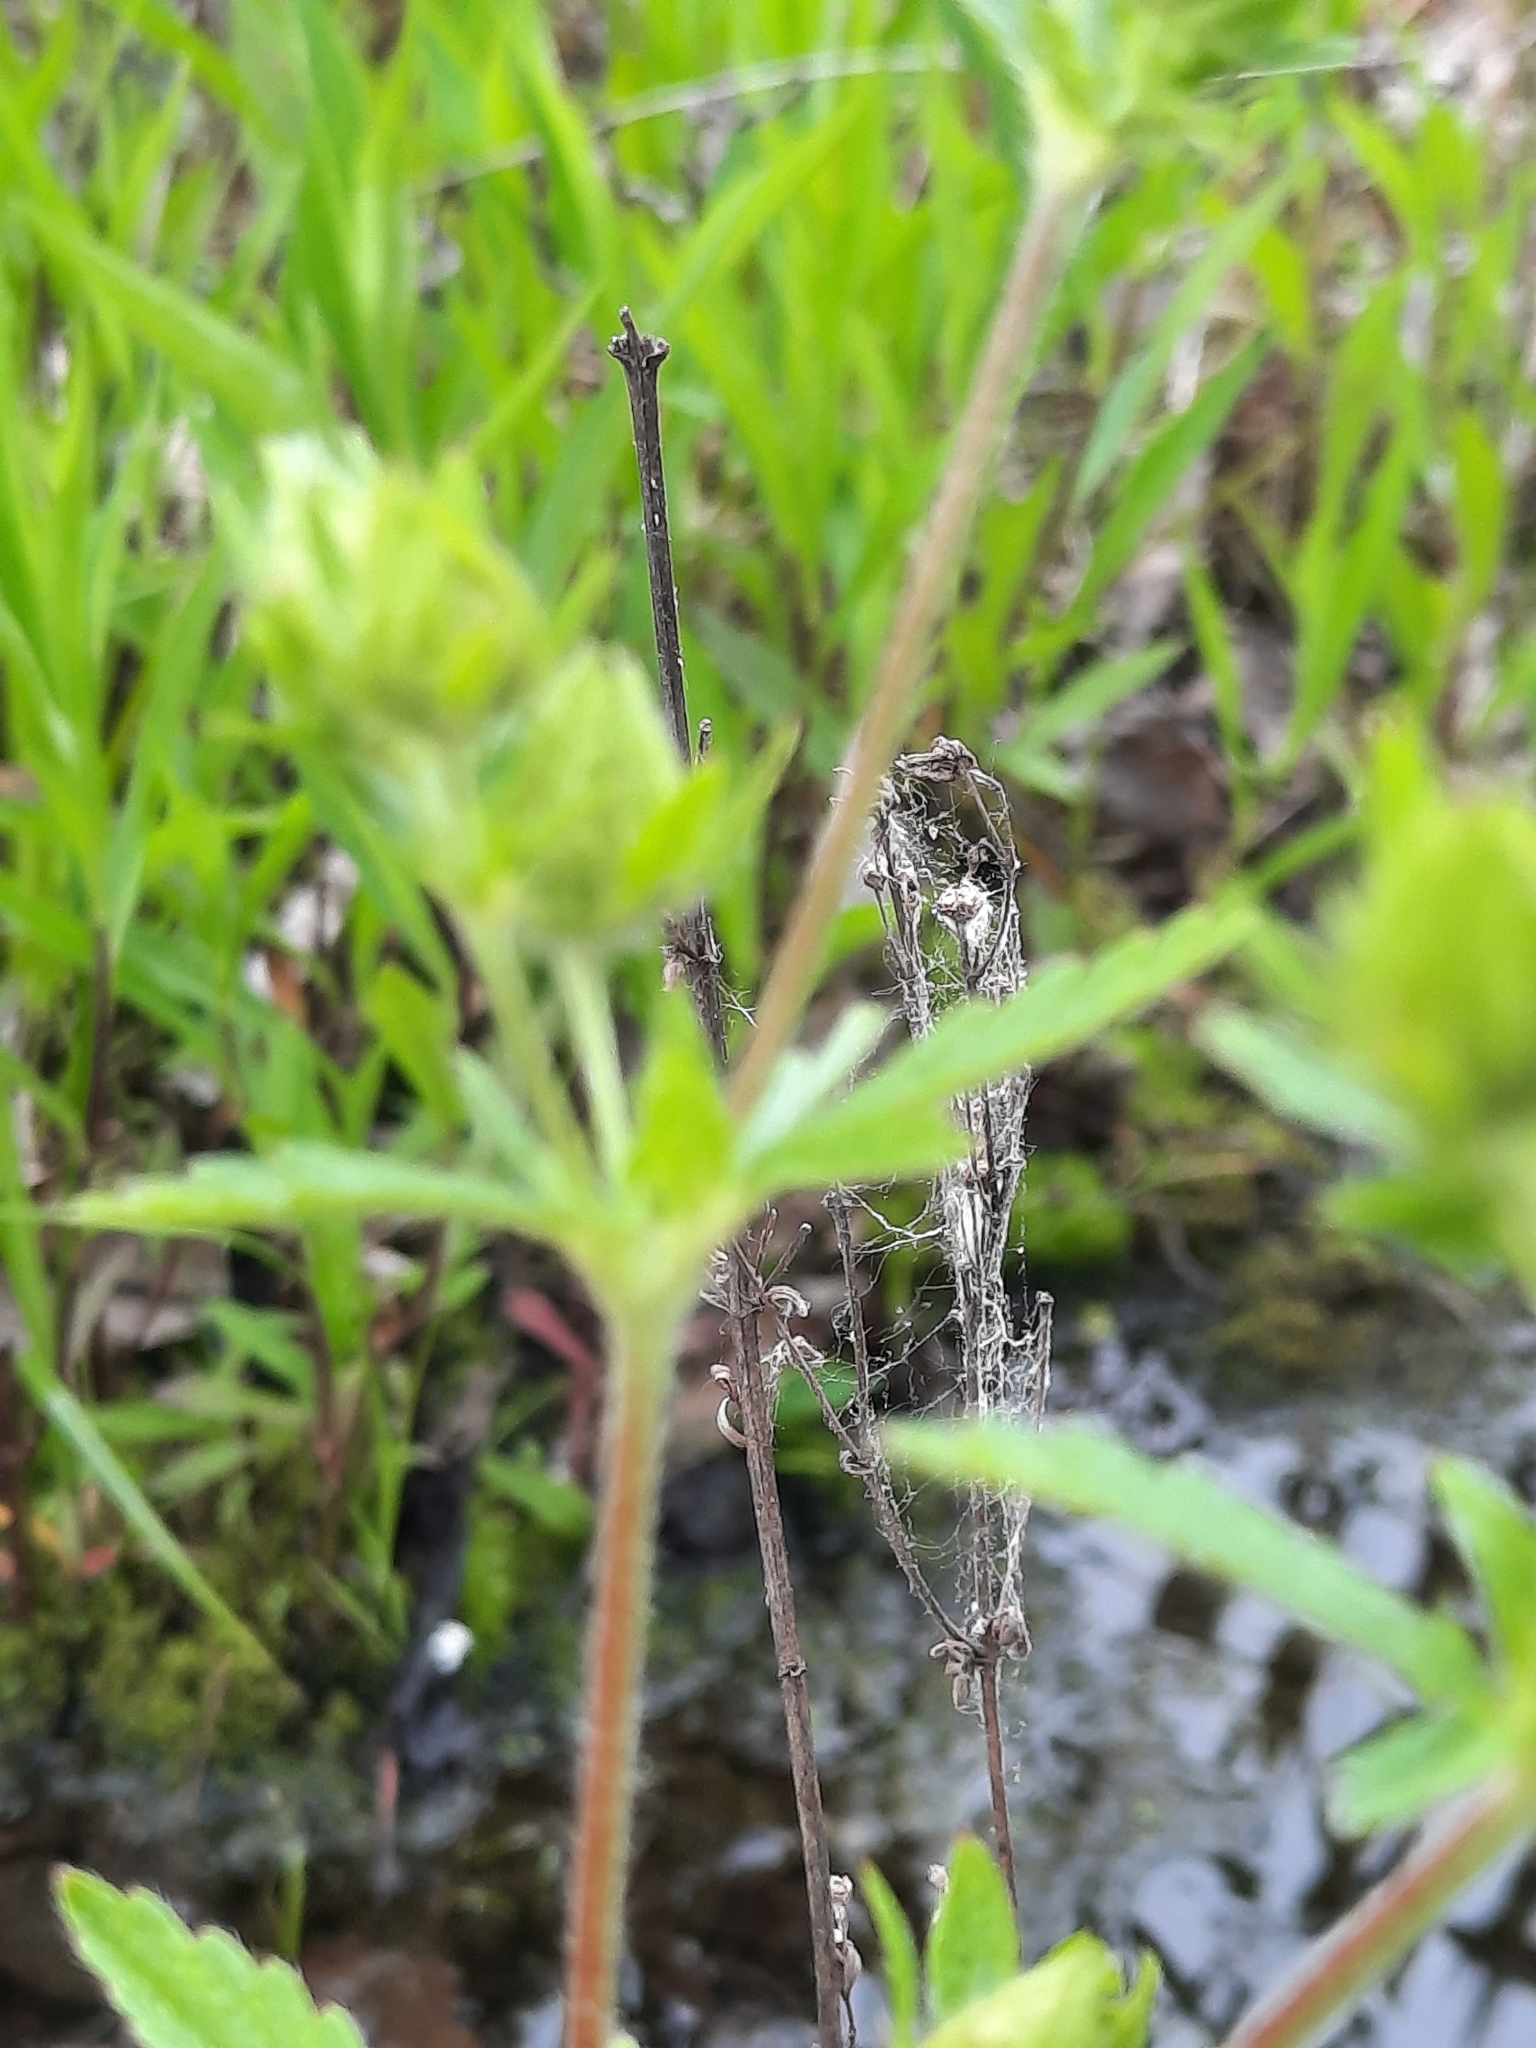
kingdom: Plantae
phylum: Tracheophyta
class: Magnoliopsida
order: Rosales
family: Rosaceae
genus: Potentilla
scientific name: Potentilla norvegica
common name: Ternate-leaved cinquefoil
